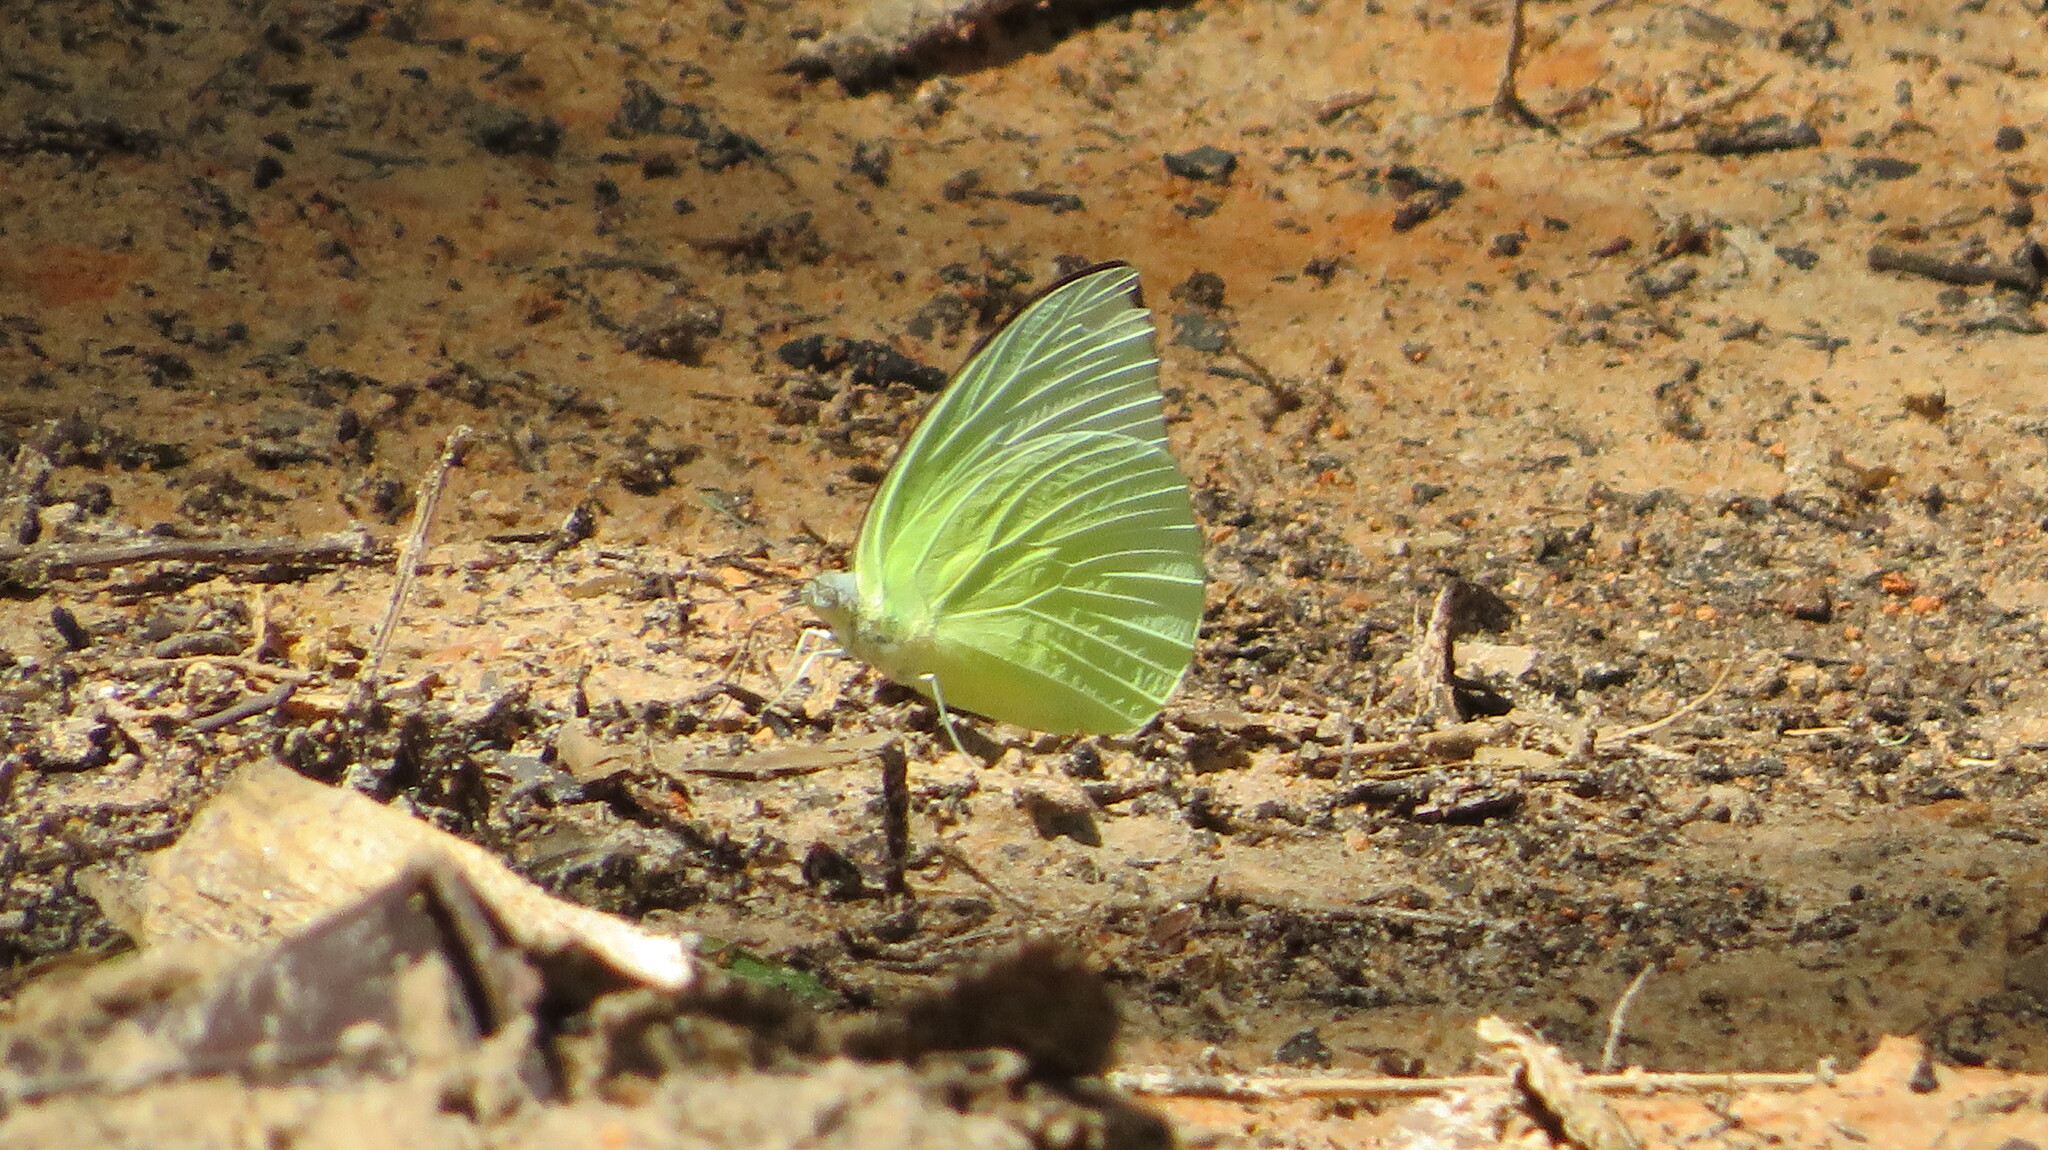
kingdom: Animalia
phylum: Arthropoda
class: Insecta
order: Lepidoptera
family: Pieridae
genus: Catopsilia
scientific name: Catopsilia pomona
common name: Common emigrant
